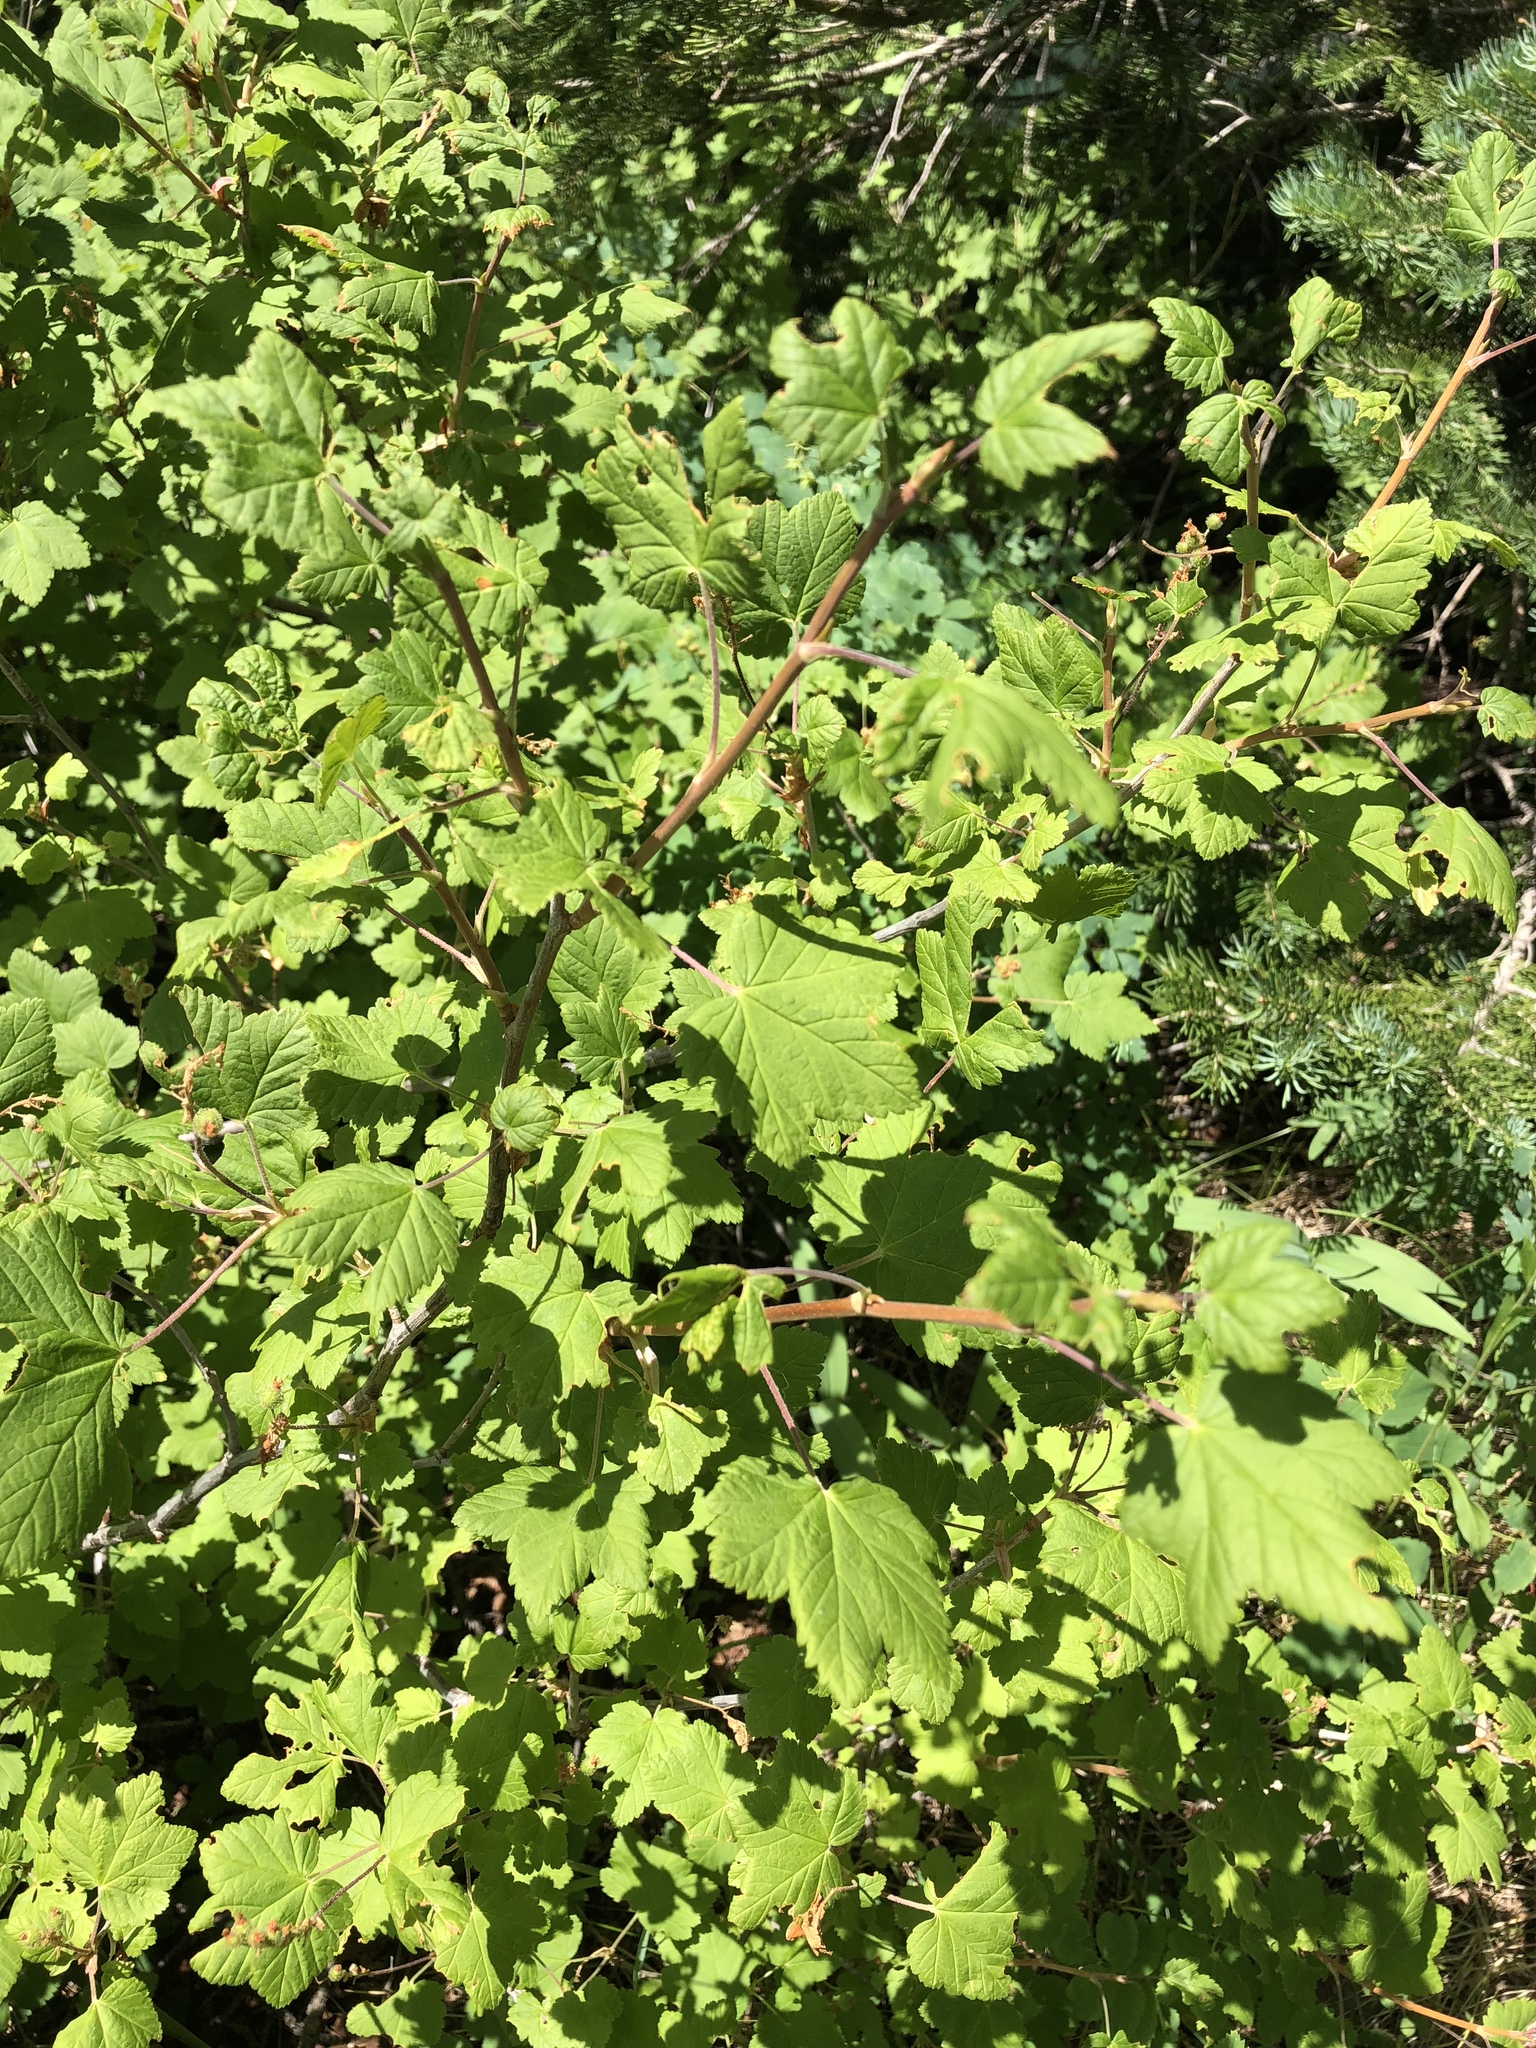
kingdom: Plantae
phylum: Tracheophyta
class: Magnoliopsida
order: Saxifragales
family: Grossulariaceae
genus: Ribes
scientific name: Ribes wolfii
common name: Rothrock currant
